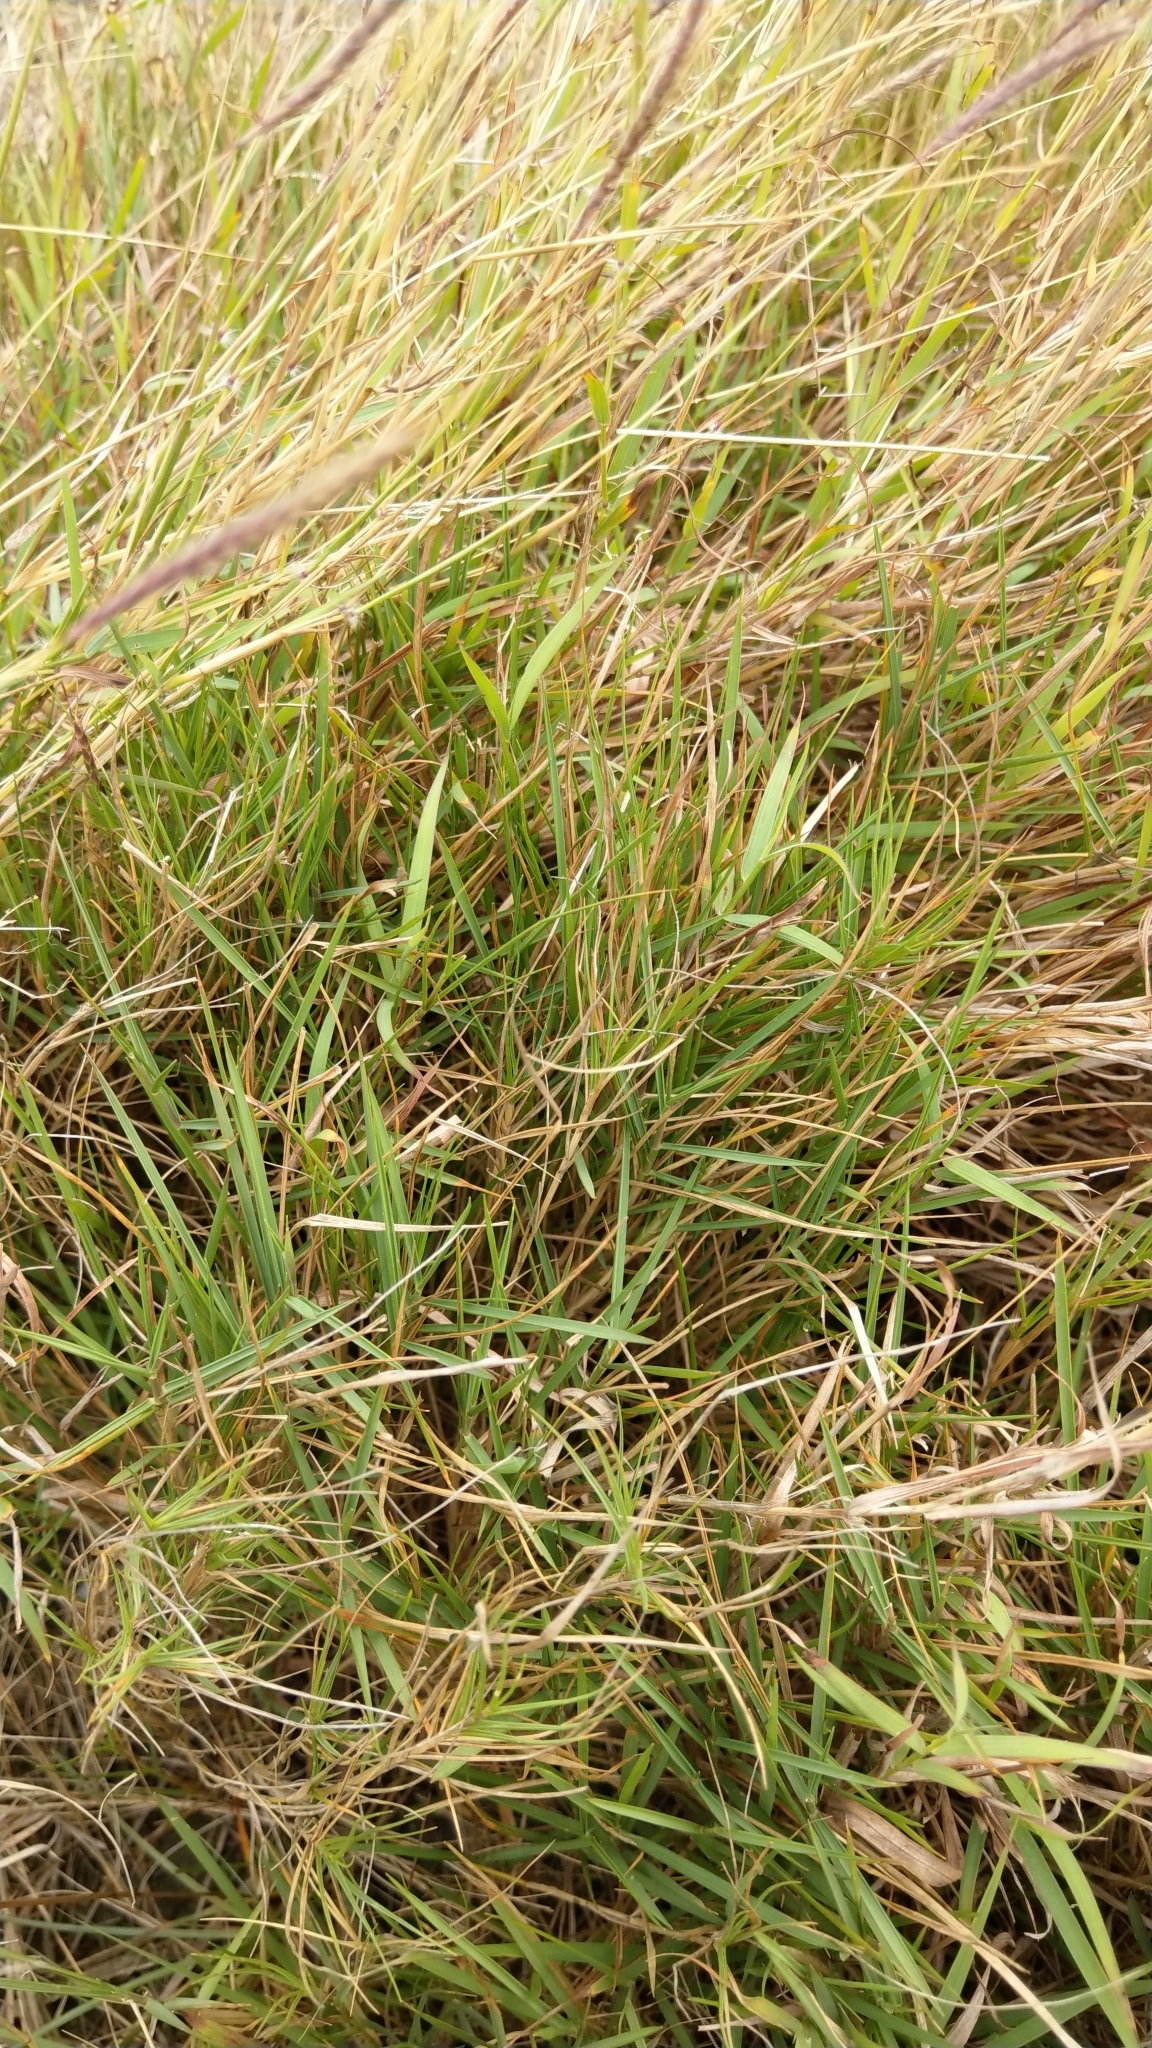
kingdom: Plantae
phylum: Tracheophyta
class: Liliopsida
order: Poales
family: Poaceae
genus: Sporobolus
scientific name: Sporobolus virginicus
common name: Beach dropseed
